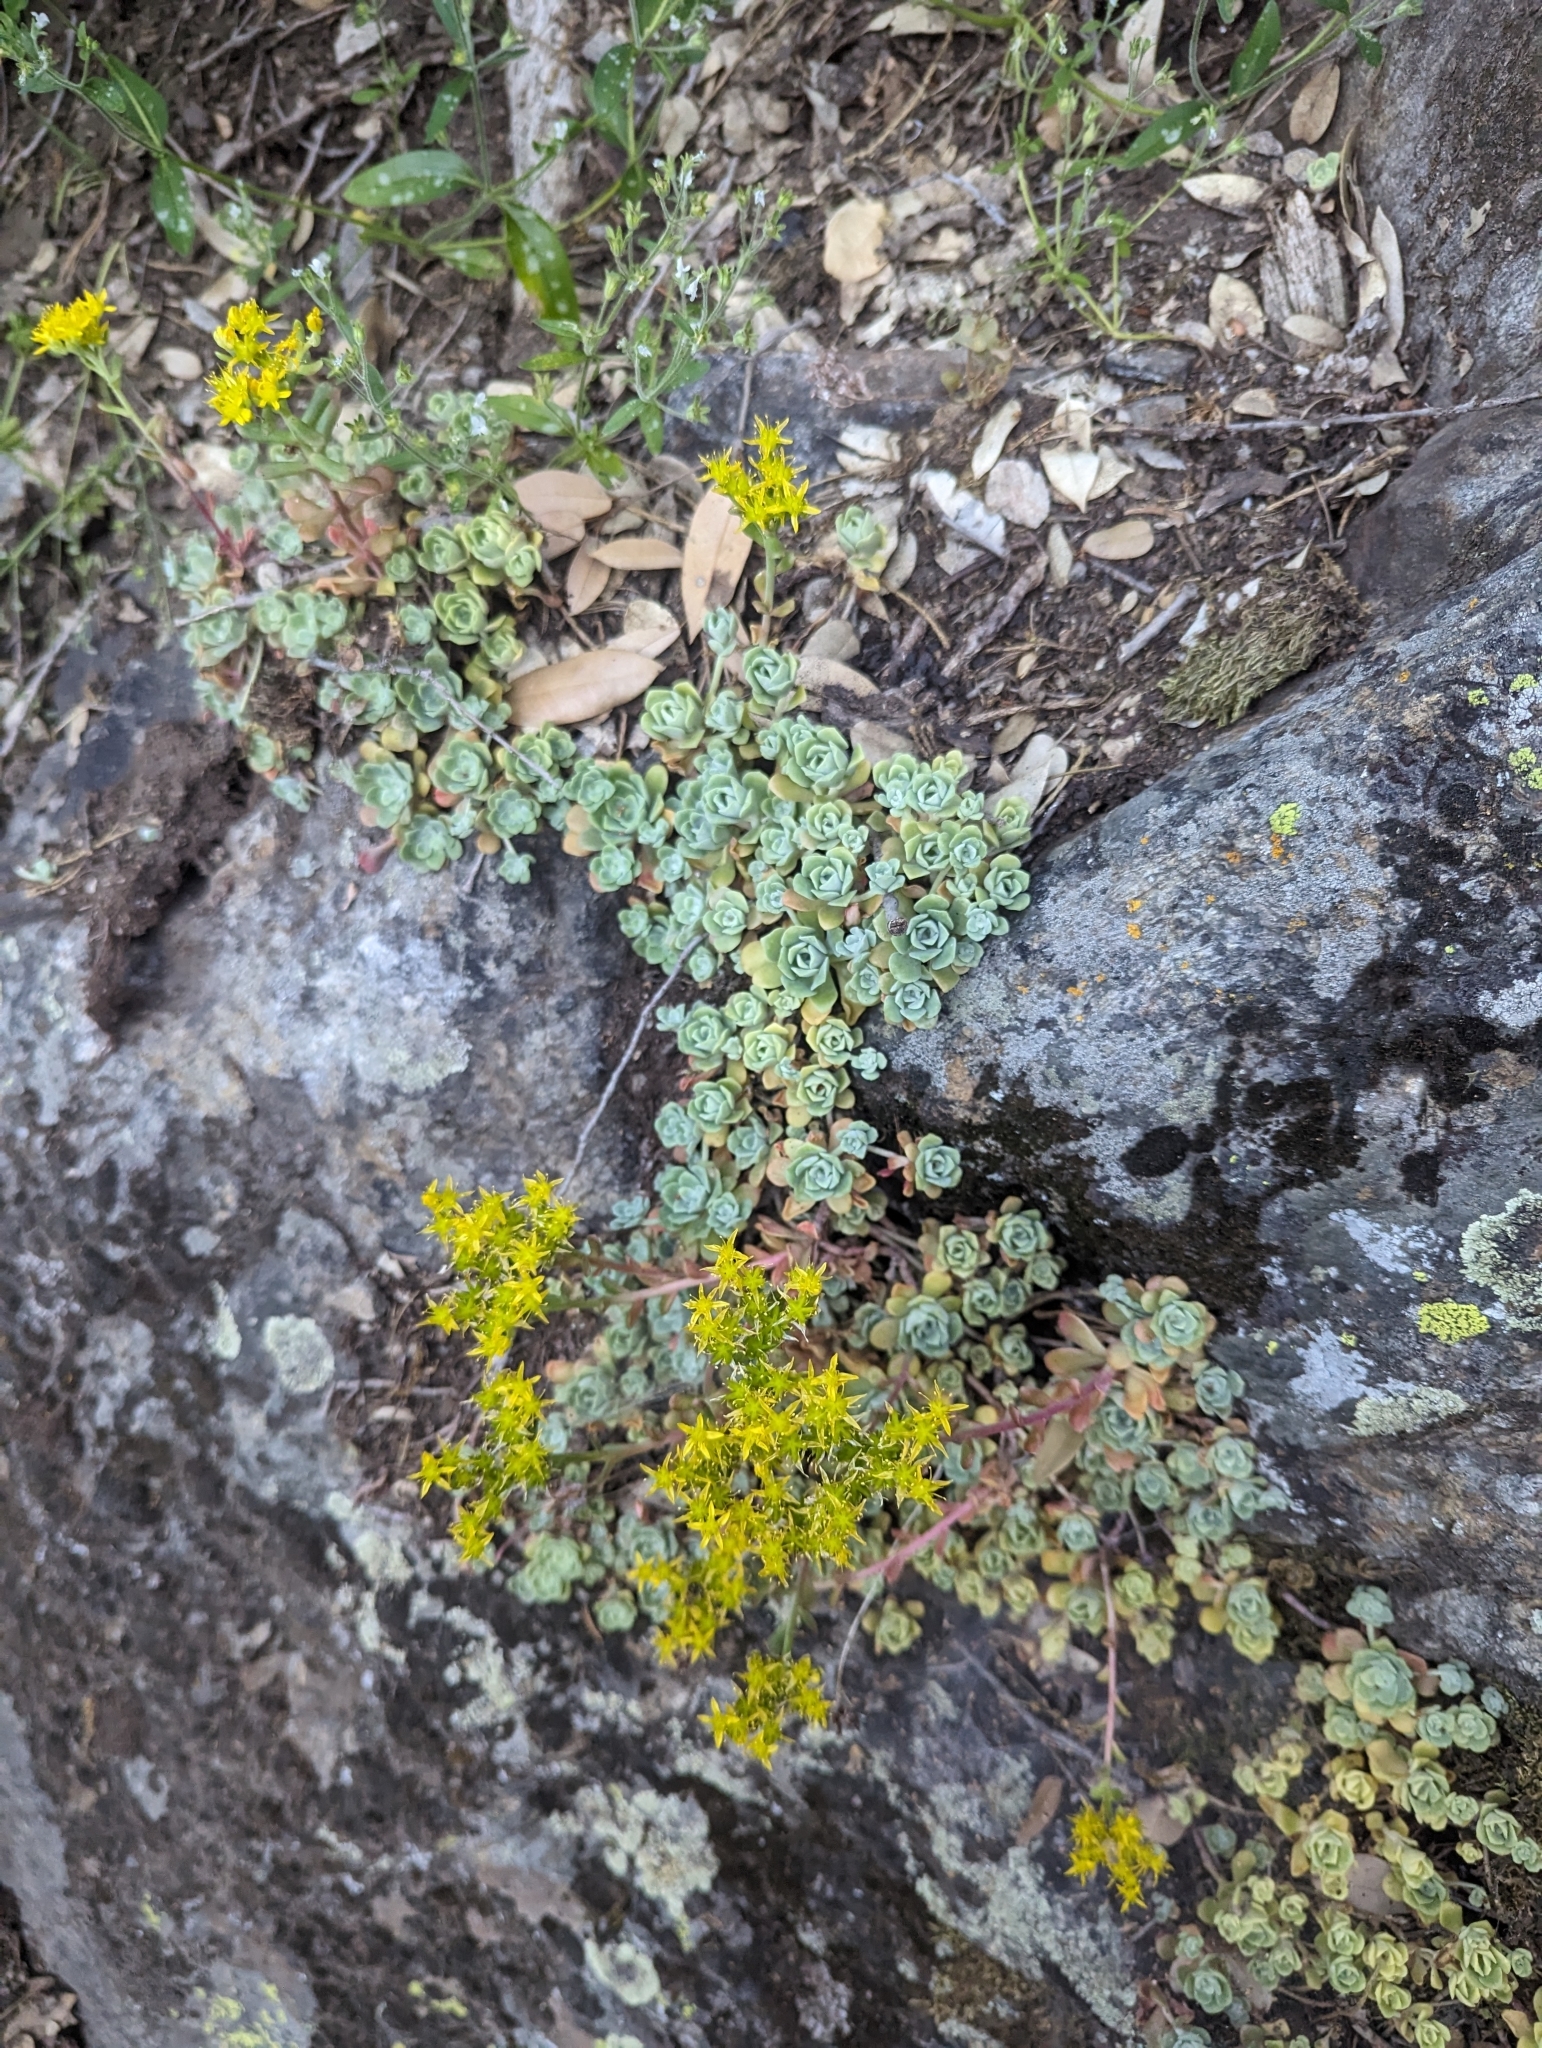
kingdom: Plantae
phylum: Tracheophyta
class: Magnoliopsida
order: Saxifragales
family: Crassulaceae
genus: Sedum
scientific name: Sedum spathulifolium
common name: Colorado stonecrop
